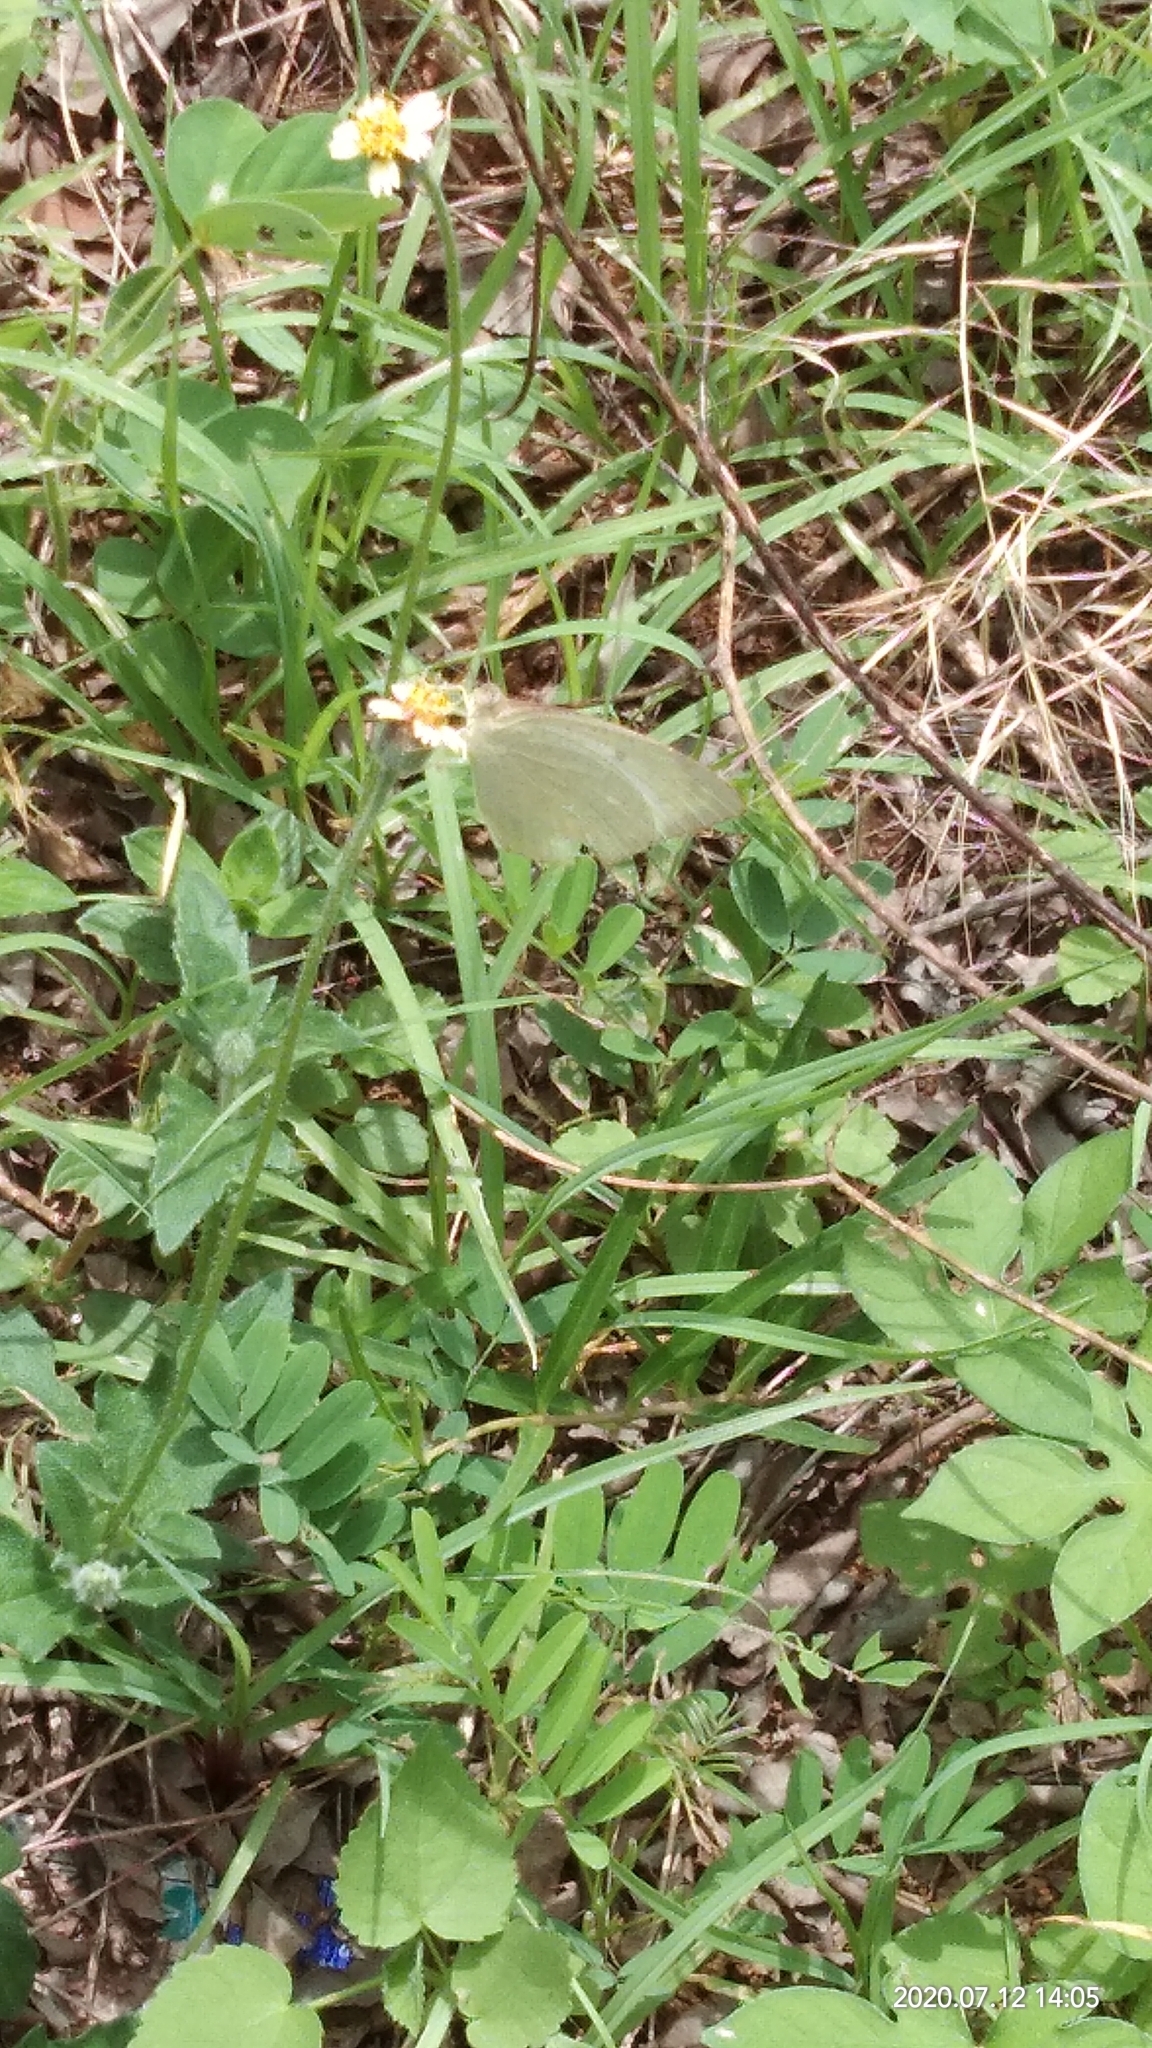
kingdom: Animalia
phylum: Arthropoda
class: Insecta
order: Lepidoptera
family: Pieridae
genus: Catopsilia
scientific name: Catopsilia pyranthe
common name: Mottled emigrant
